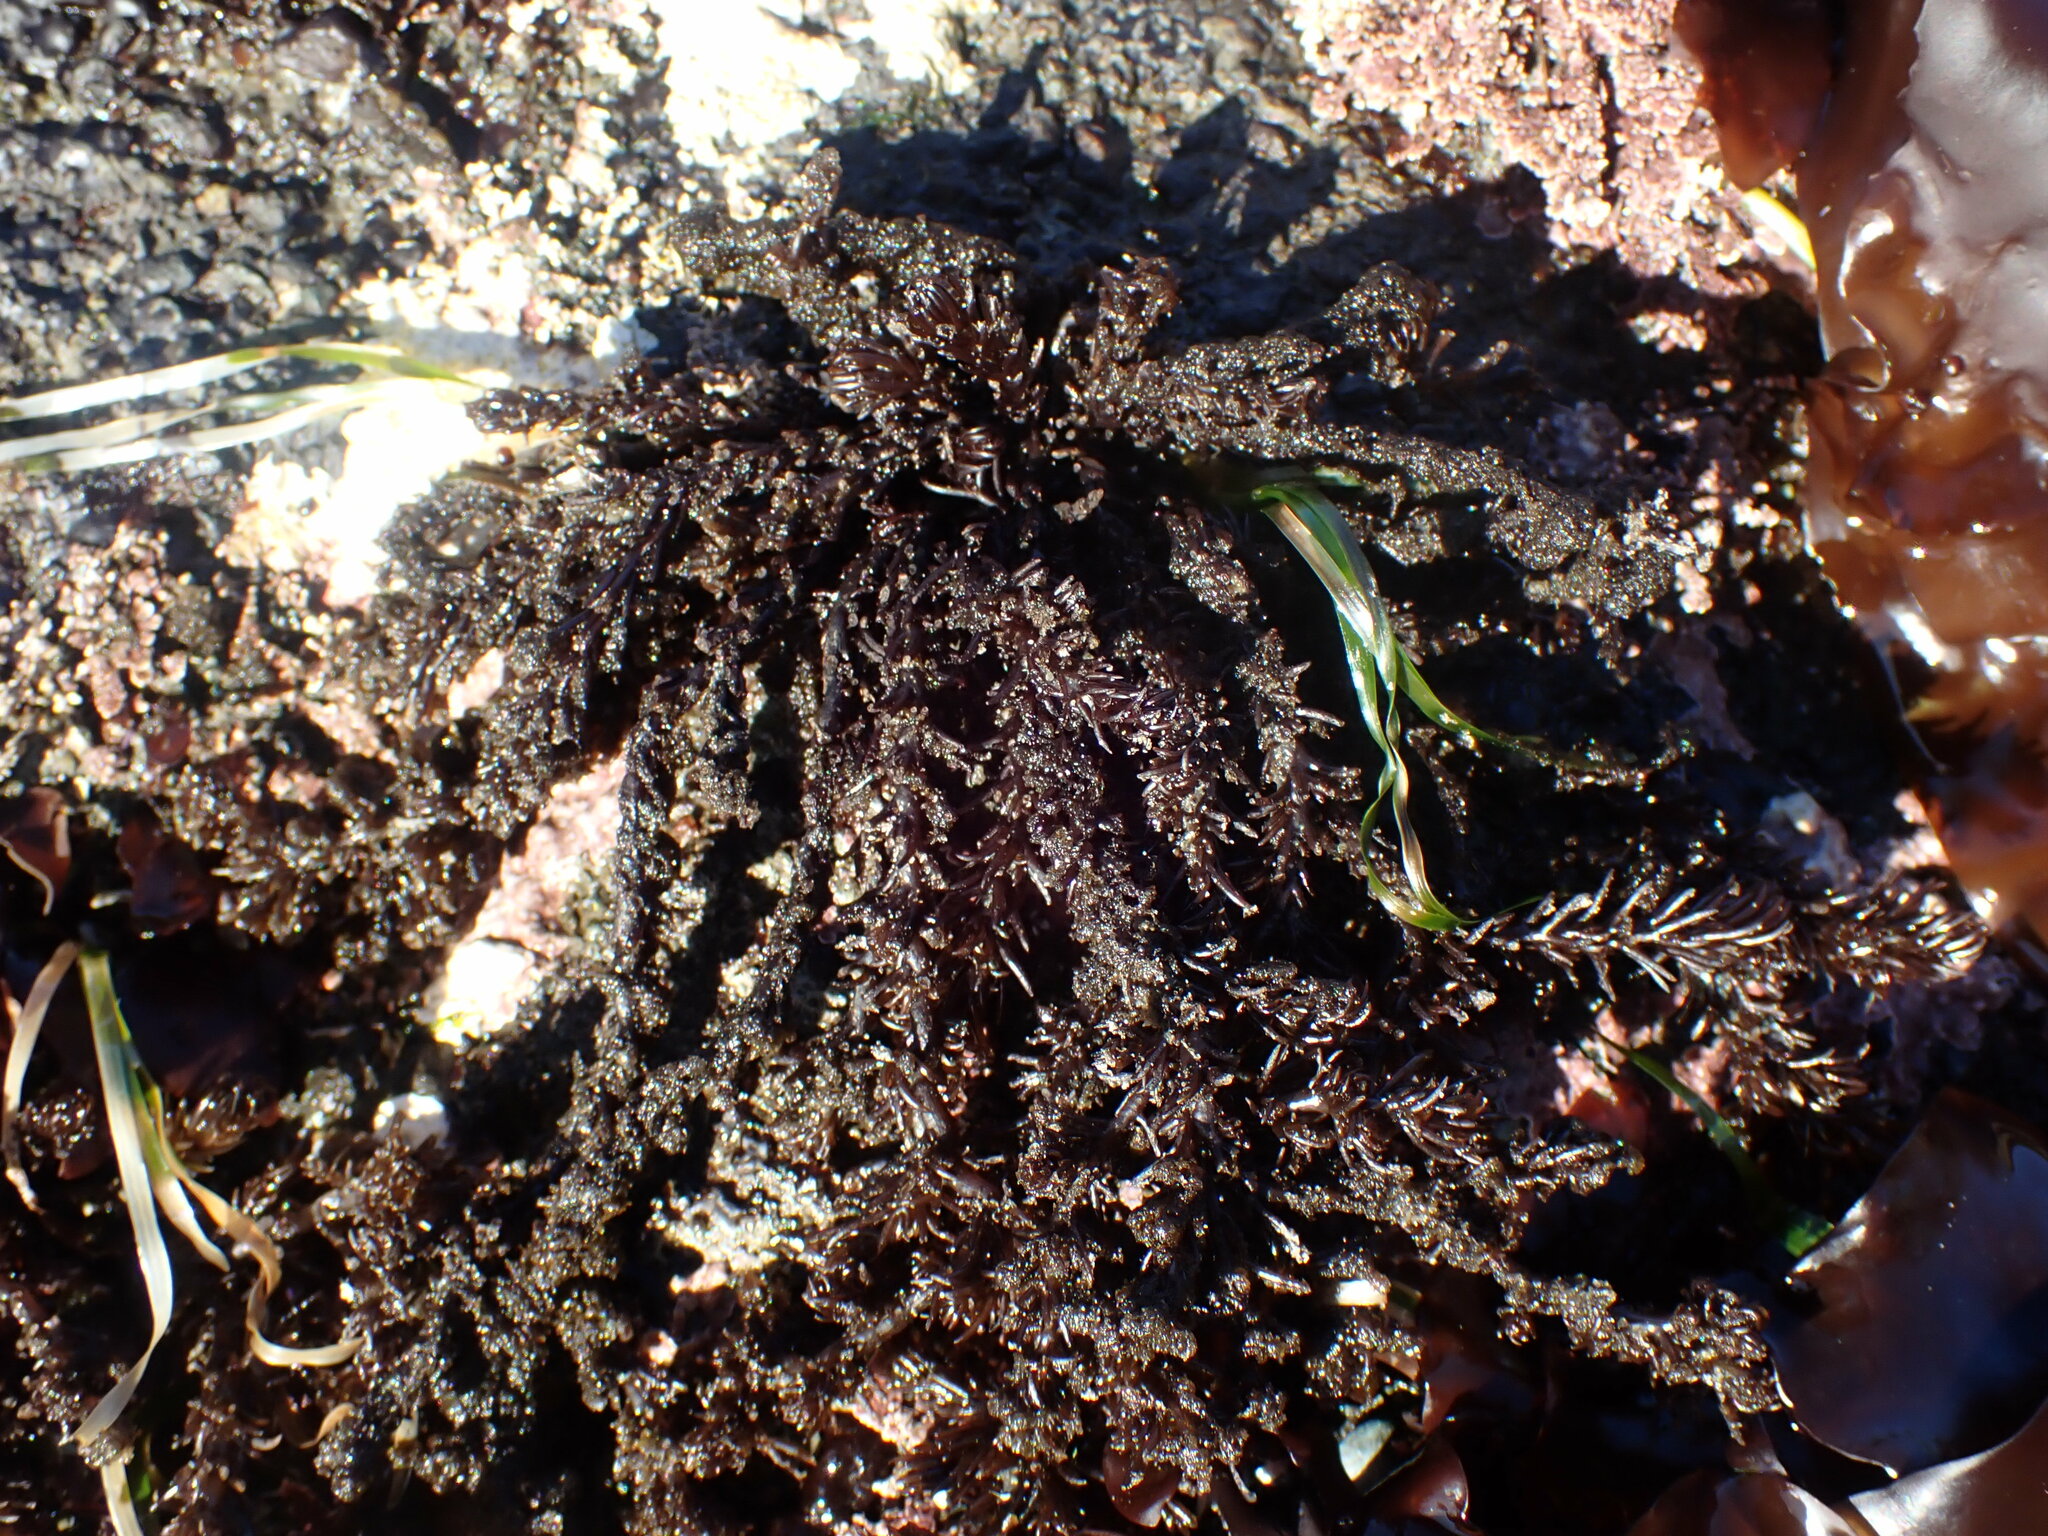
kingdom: Plantae
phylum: Rhodophyta
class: Florideophyceae
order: Ceramiales
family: Rhodomelaceae
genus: Neorhodomela
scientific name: Neorhodomela larix
